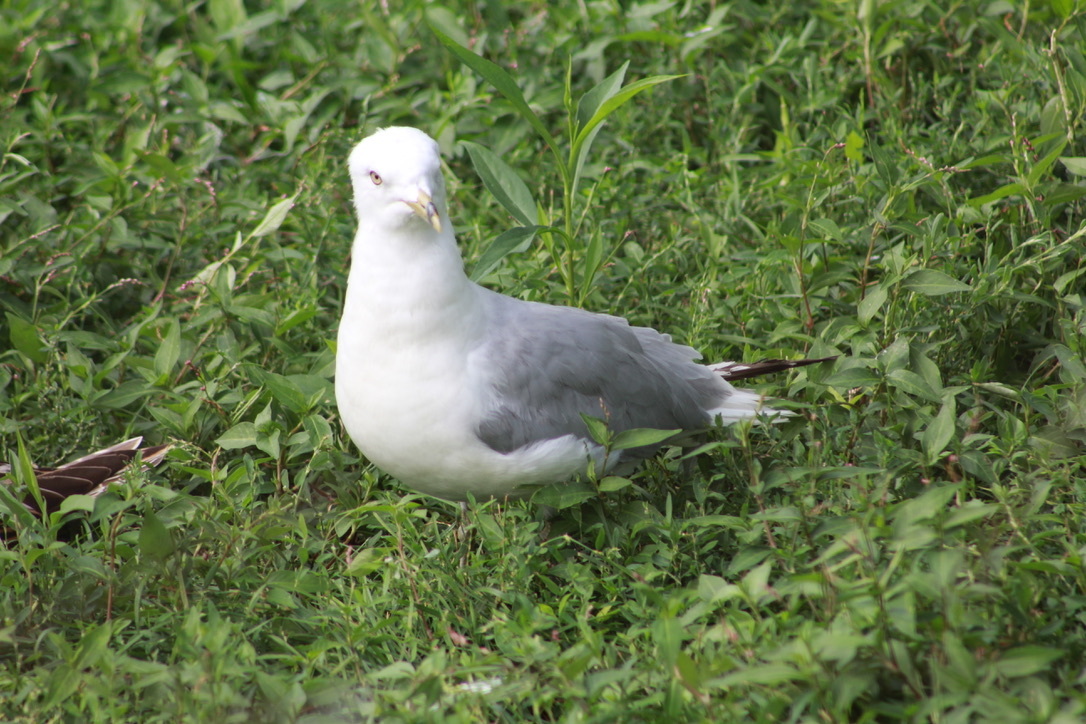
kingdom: Animalia
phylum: Chordata
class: Aves
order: Charadriiformes
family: Laridae
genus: Larus
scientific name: Larus delawarensis
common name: Ring-billed gull
